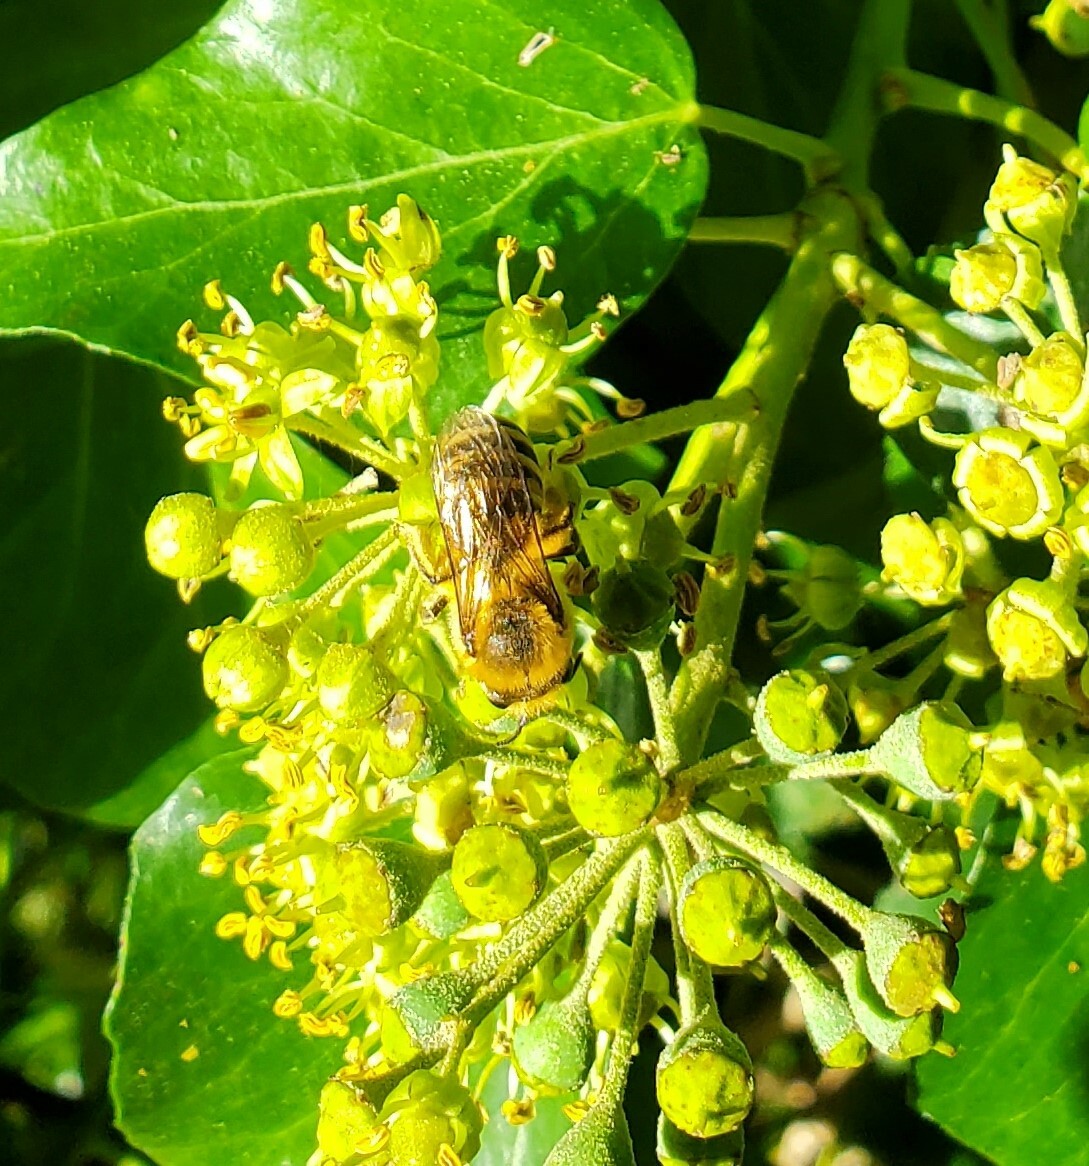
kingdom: Animalia
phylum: Arthropoda
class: Insecta
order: Hymenoptera
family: Colletidae
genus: Colletes
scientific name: Colletes hederae
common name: Ivy bee
